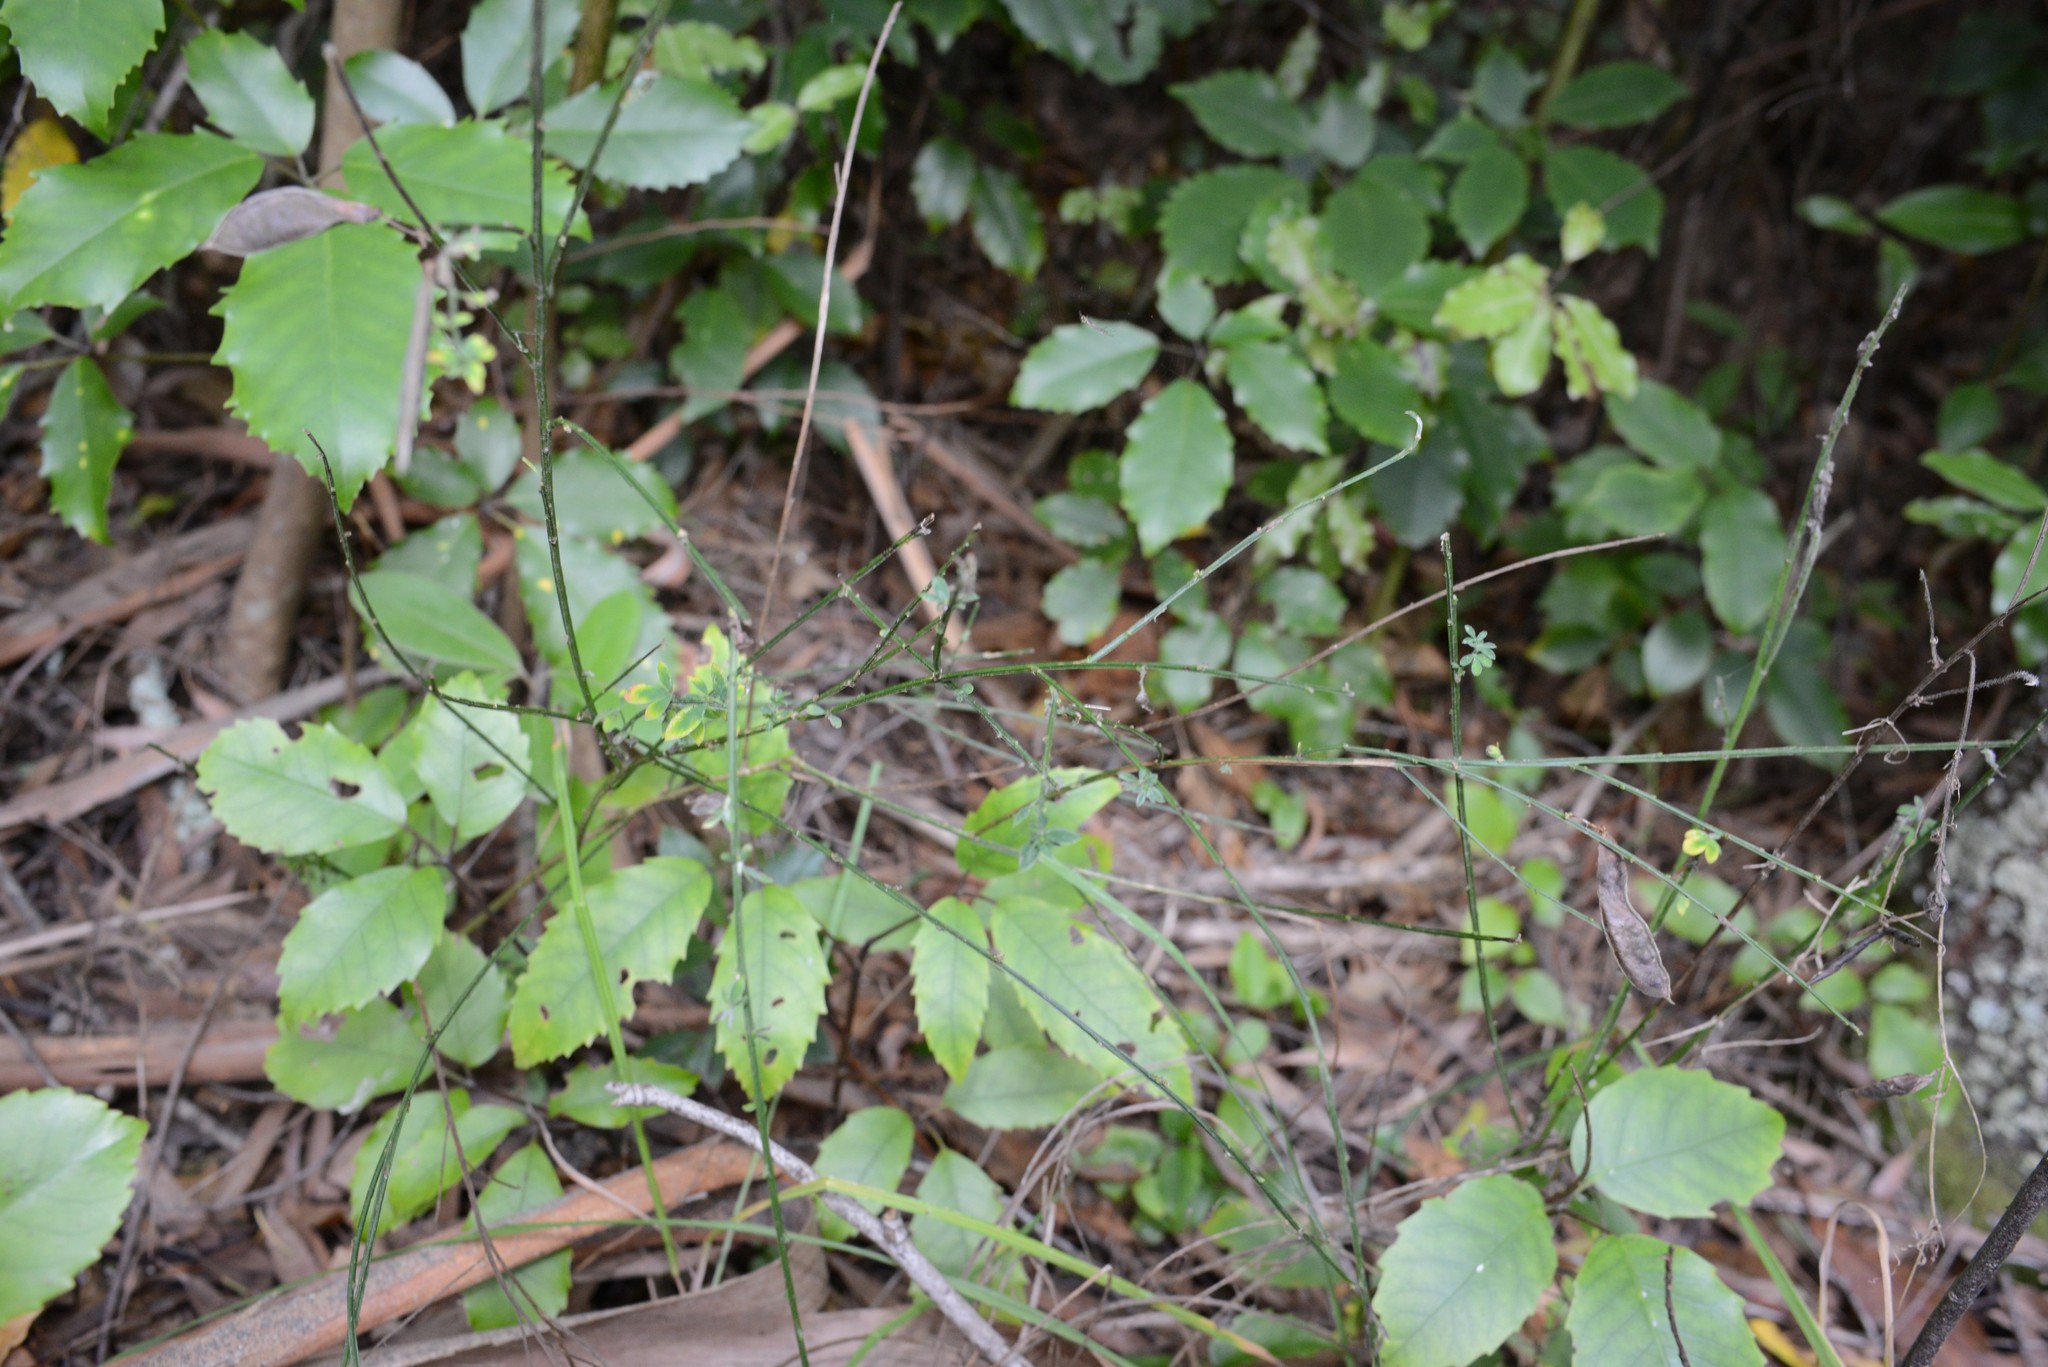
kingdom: Plantae
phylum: Tracheophyta
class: Magnoliopsida
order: Fabales
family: Fabaceae
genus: Cytisus
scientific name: Cytisus scoparius
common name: Scotch broom
